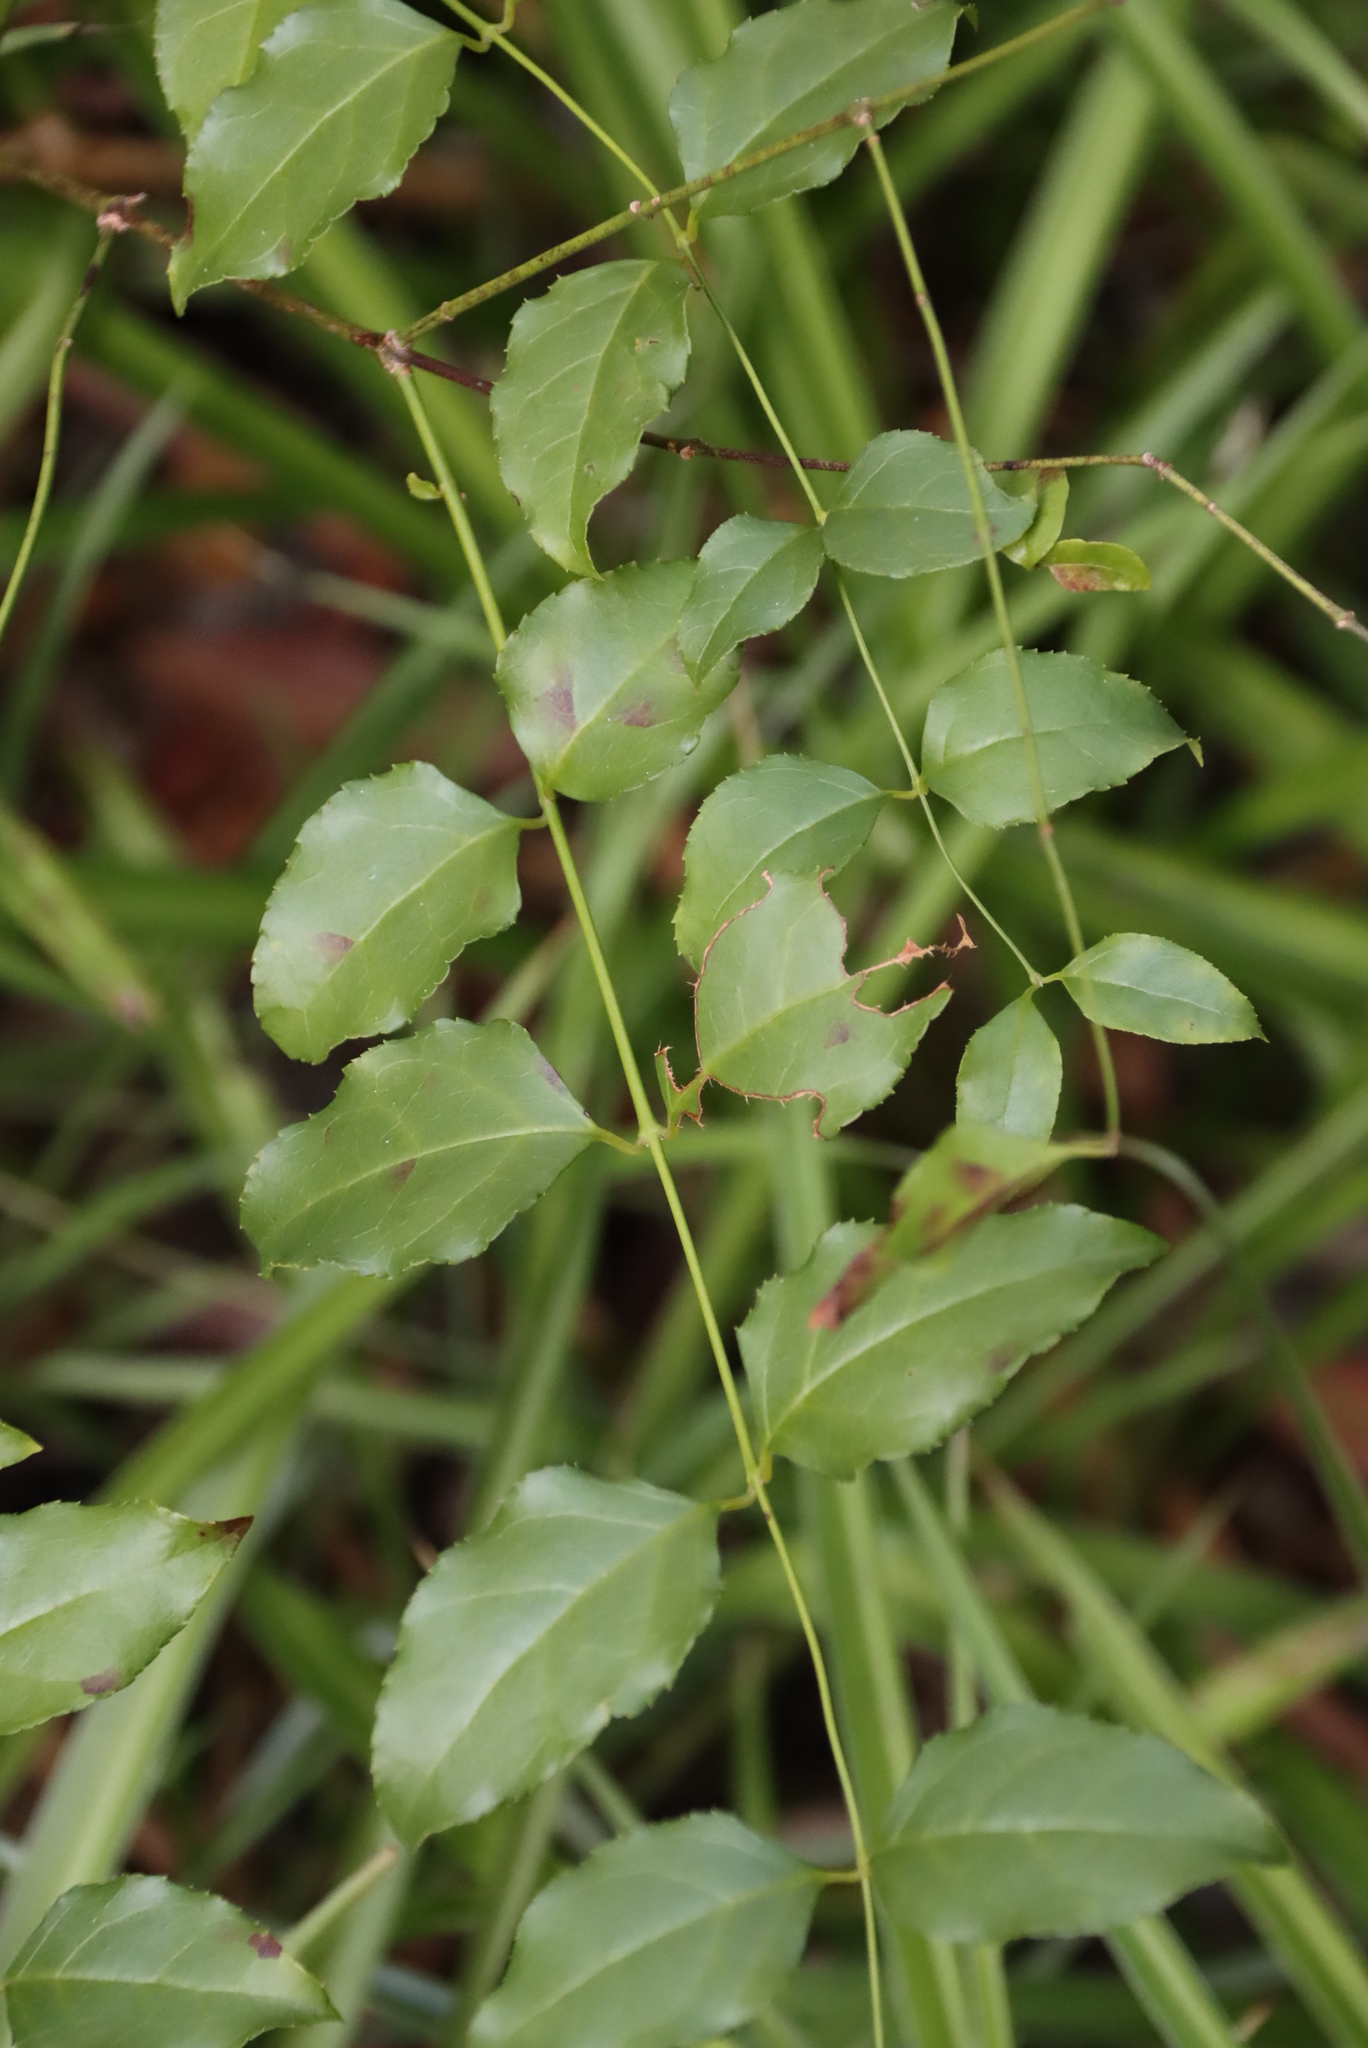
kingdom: Plantae
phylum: Tracheophyta
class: Magnoliopsida
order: Lamiales
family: Stilbaceae
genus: Halleria
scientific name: Halleria lucida
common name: Tree fuschia
